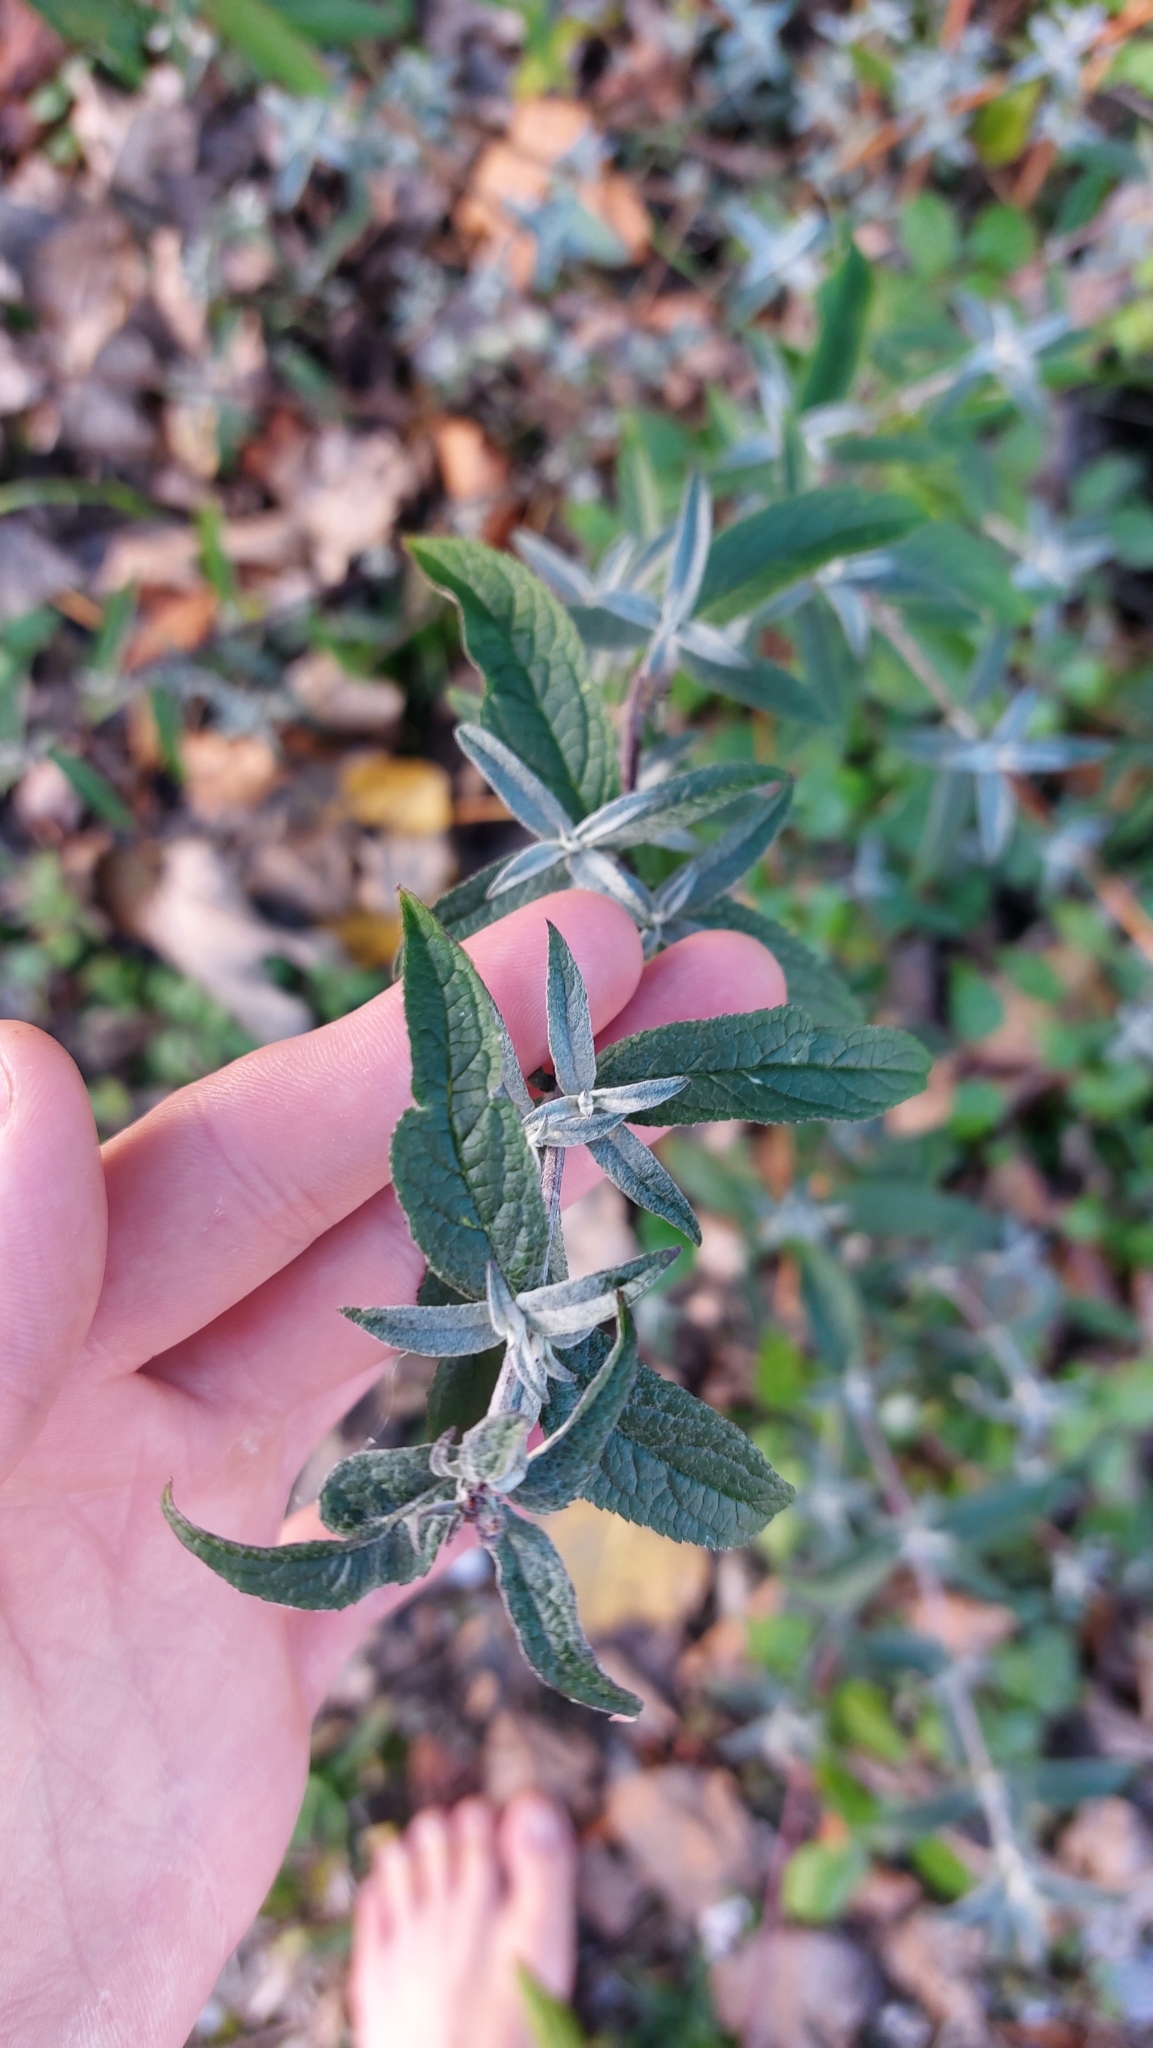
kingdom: Plantae
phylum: Tracheophyta
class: Magnoliopsida
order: Lamiales
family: Scrophulariaceae
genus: Buddleja
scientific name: Buddleja davidii
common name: Butterfly-bush
